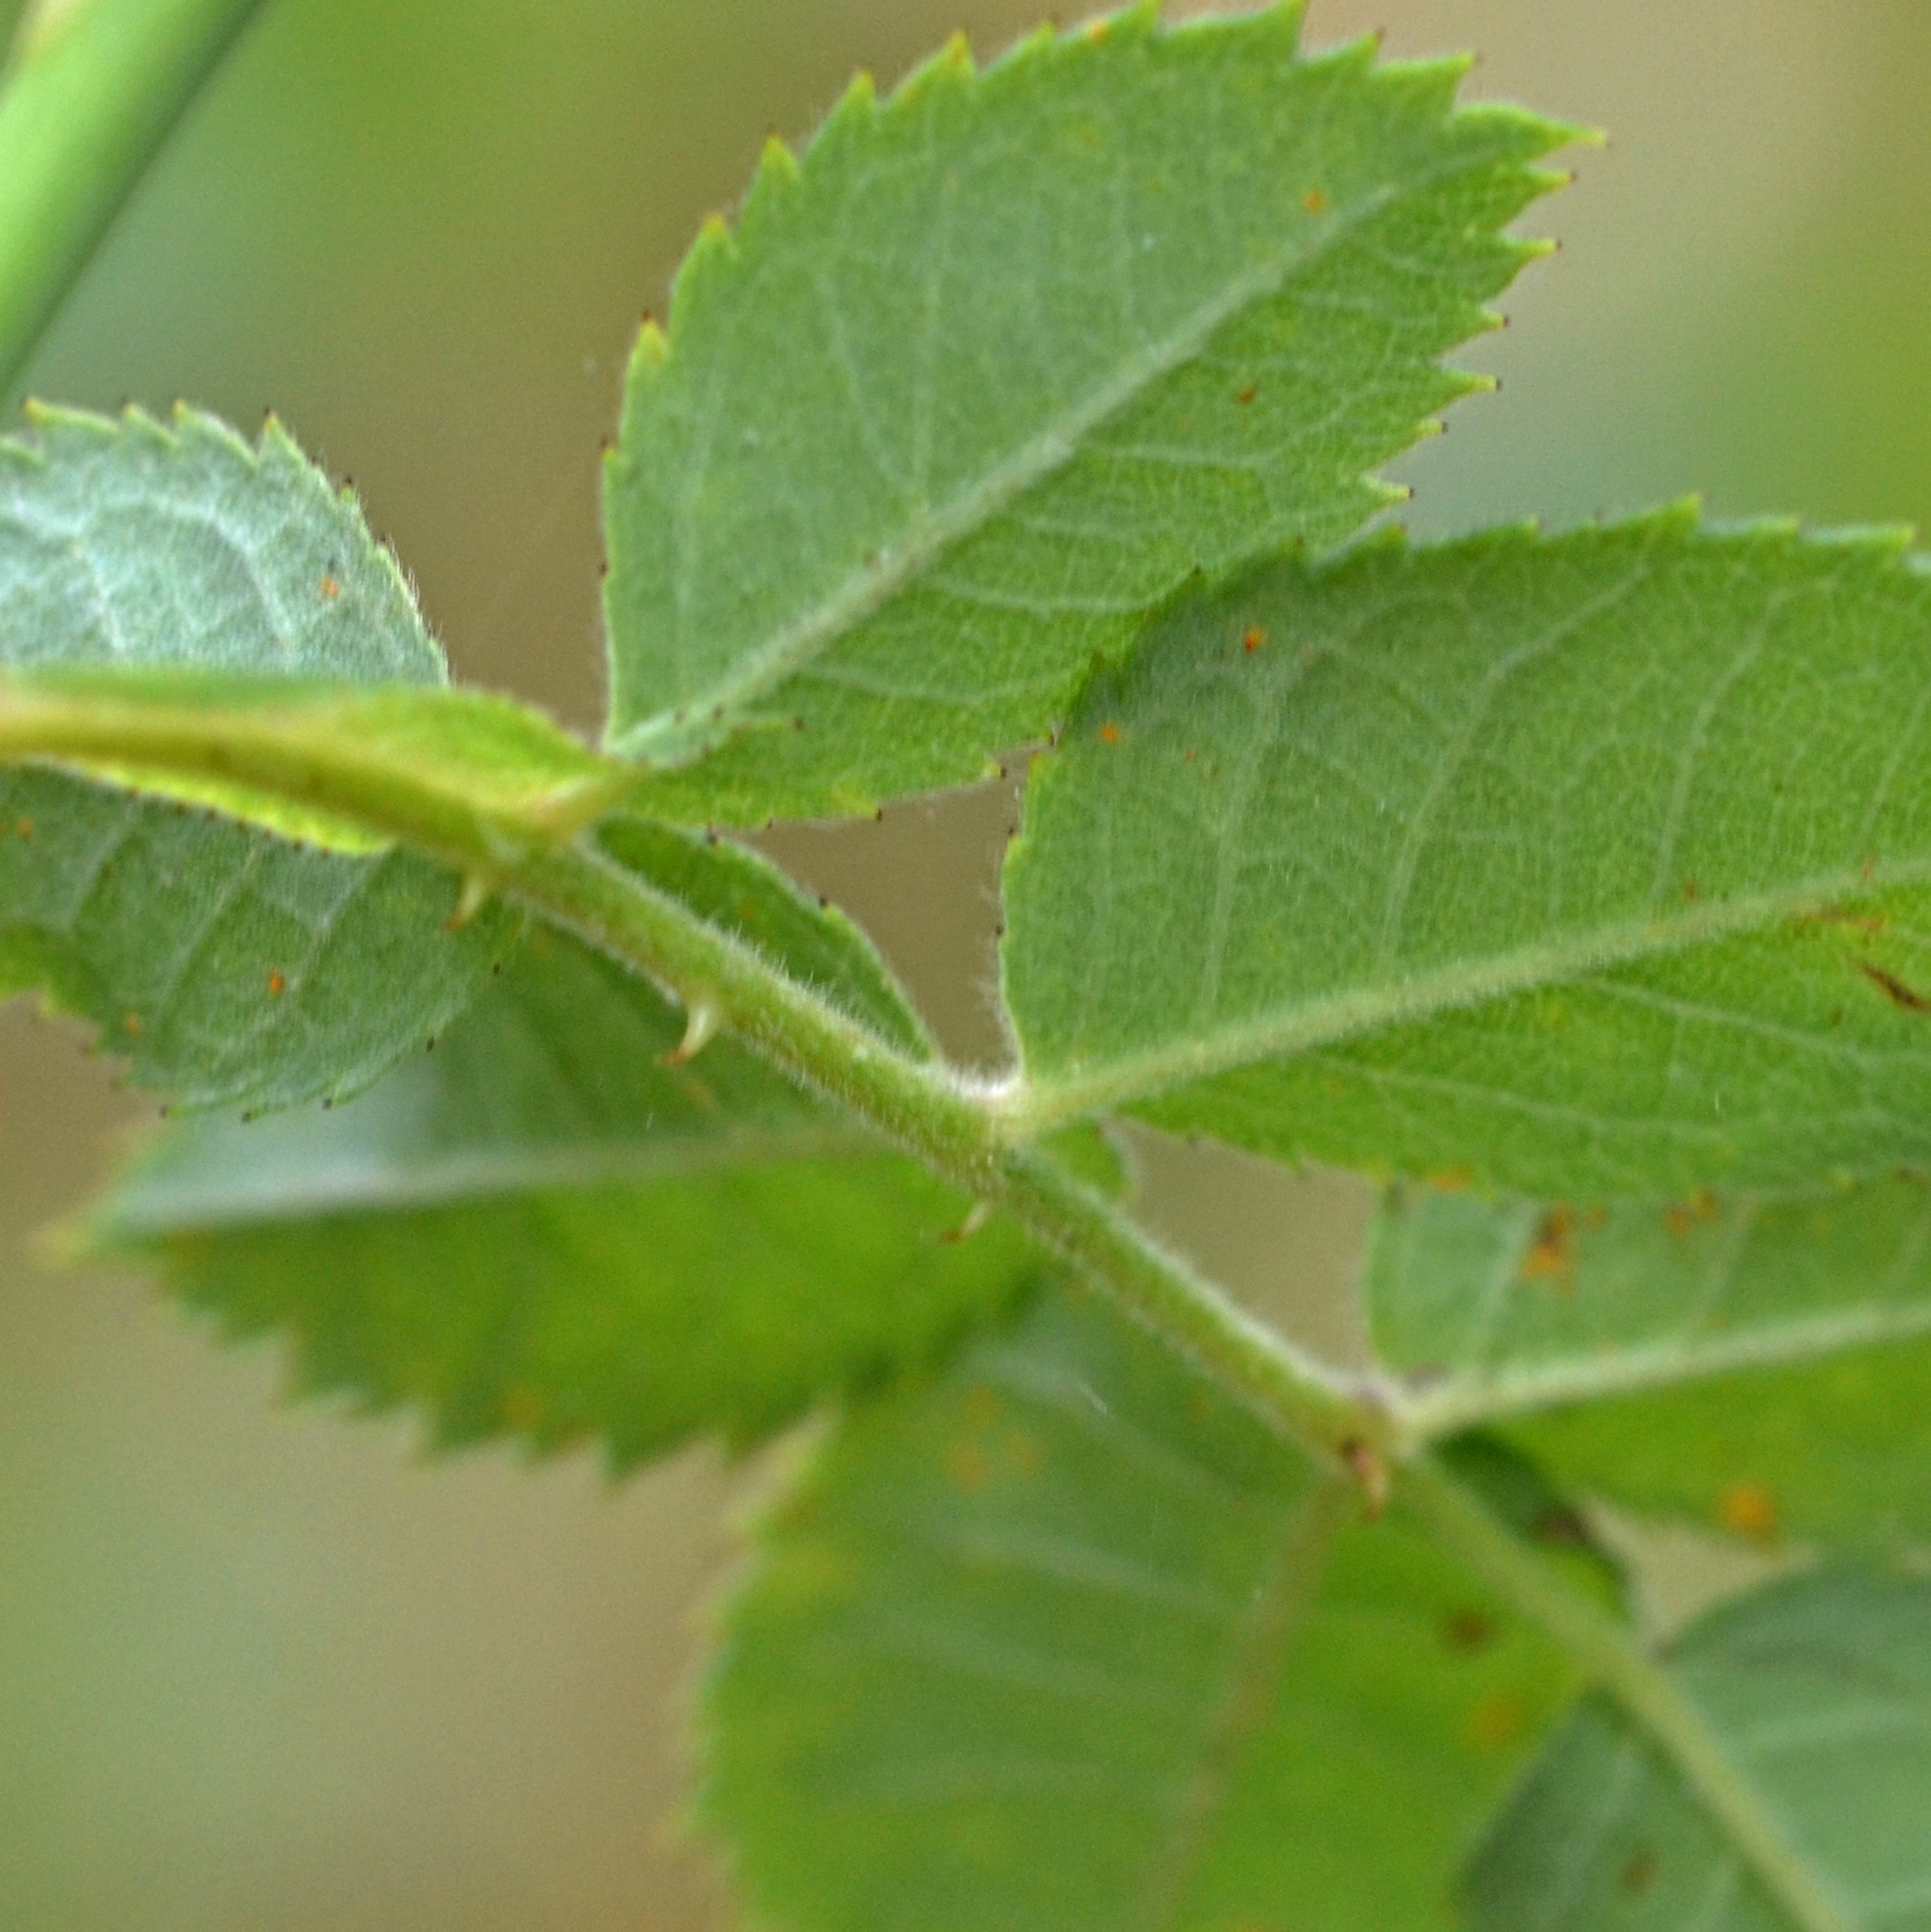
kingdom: Plantae
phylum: Tracheophyta
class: Magnoliopsida
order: Rosales
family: Rosaceae
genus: Rosa
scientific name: Rosa corymbifera
